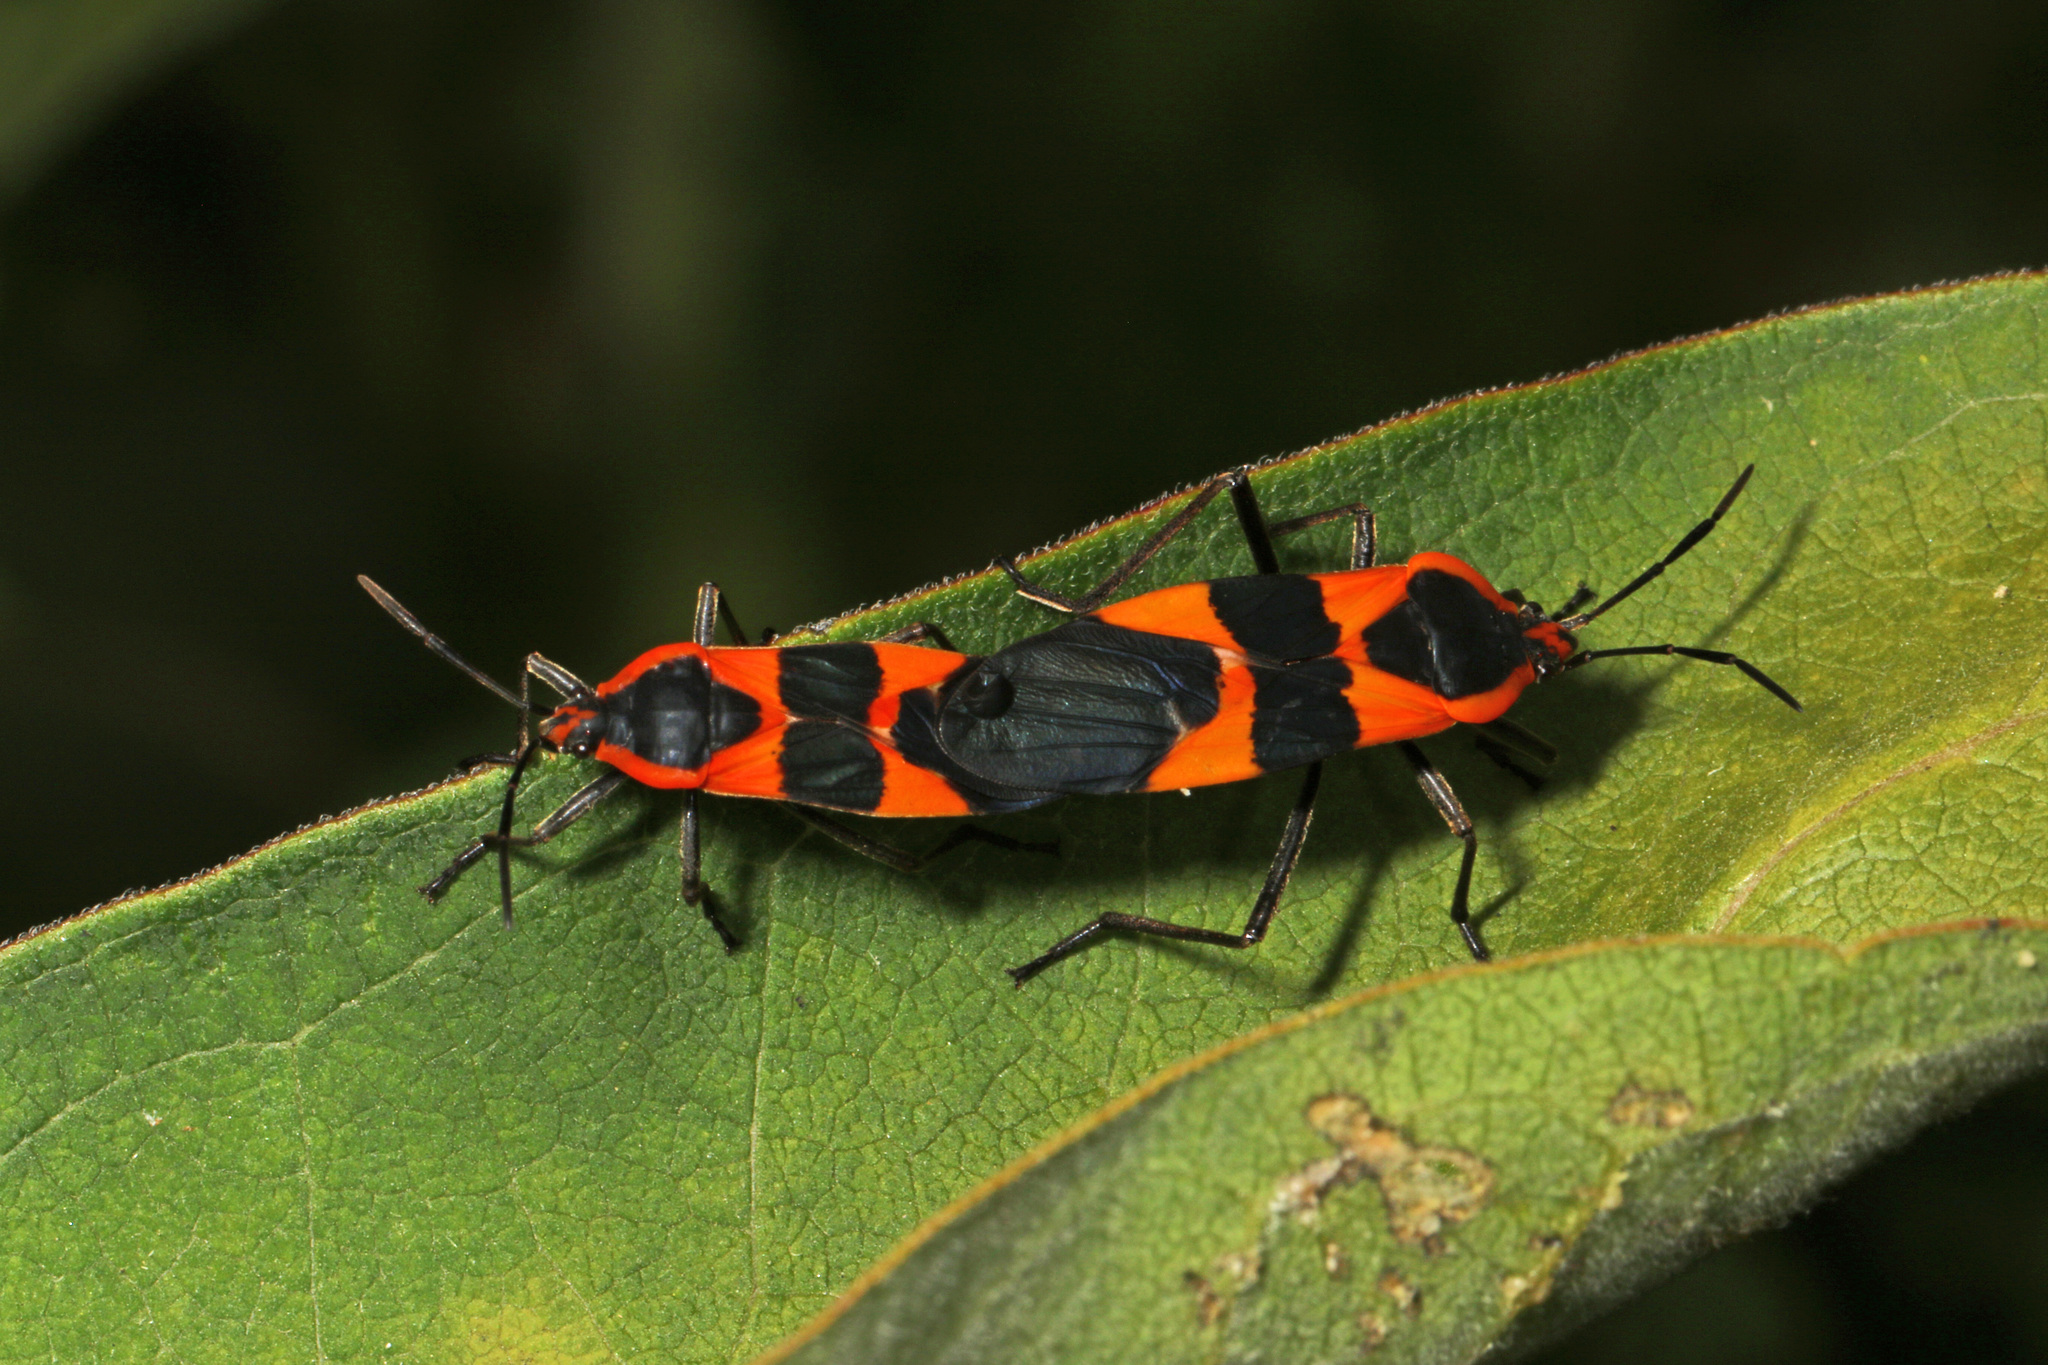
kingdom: Animalia
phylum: Arthropoda
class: Insecta
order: Hemiptera
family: Lygaeidae
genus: Oncopeltus
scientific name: Oncopeltus fasciatus
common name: Large milkweed bug
